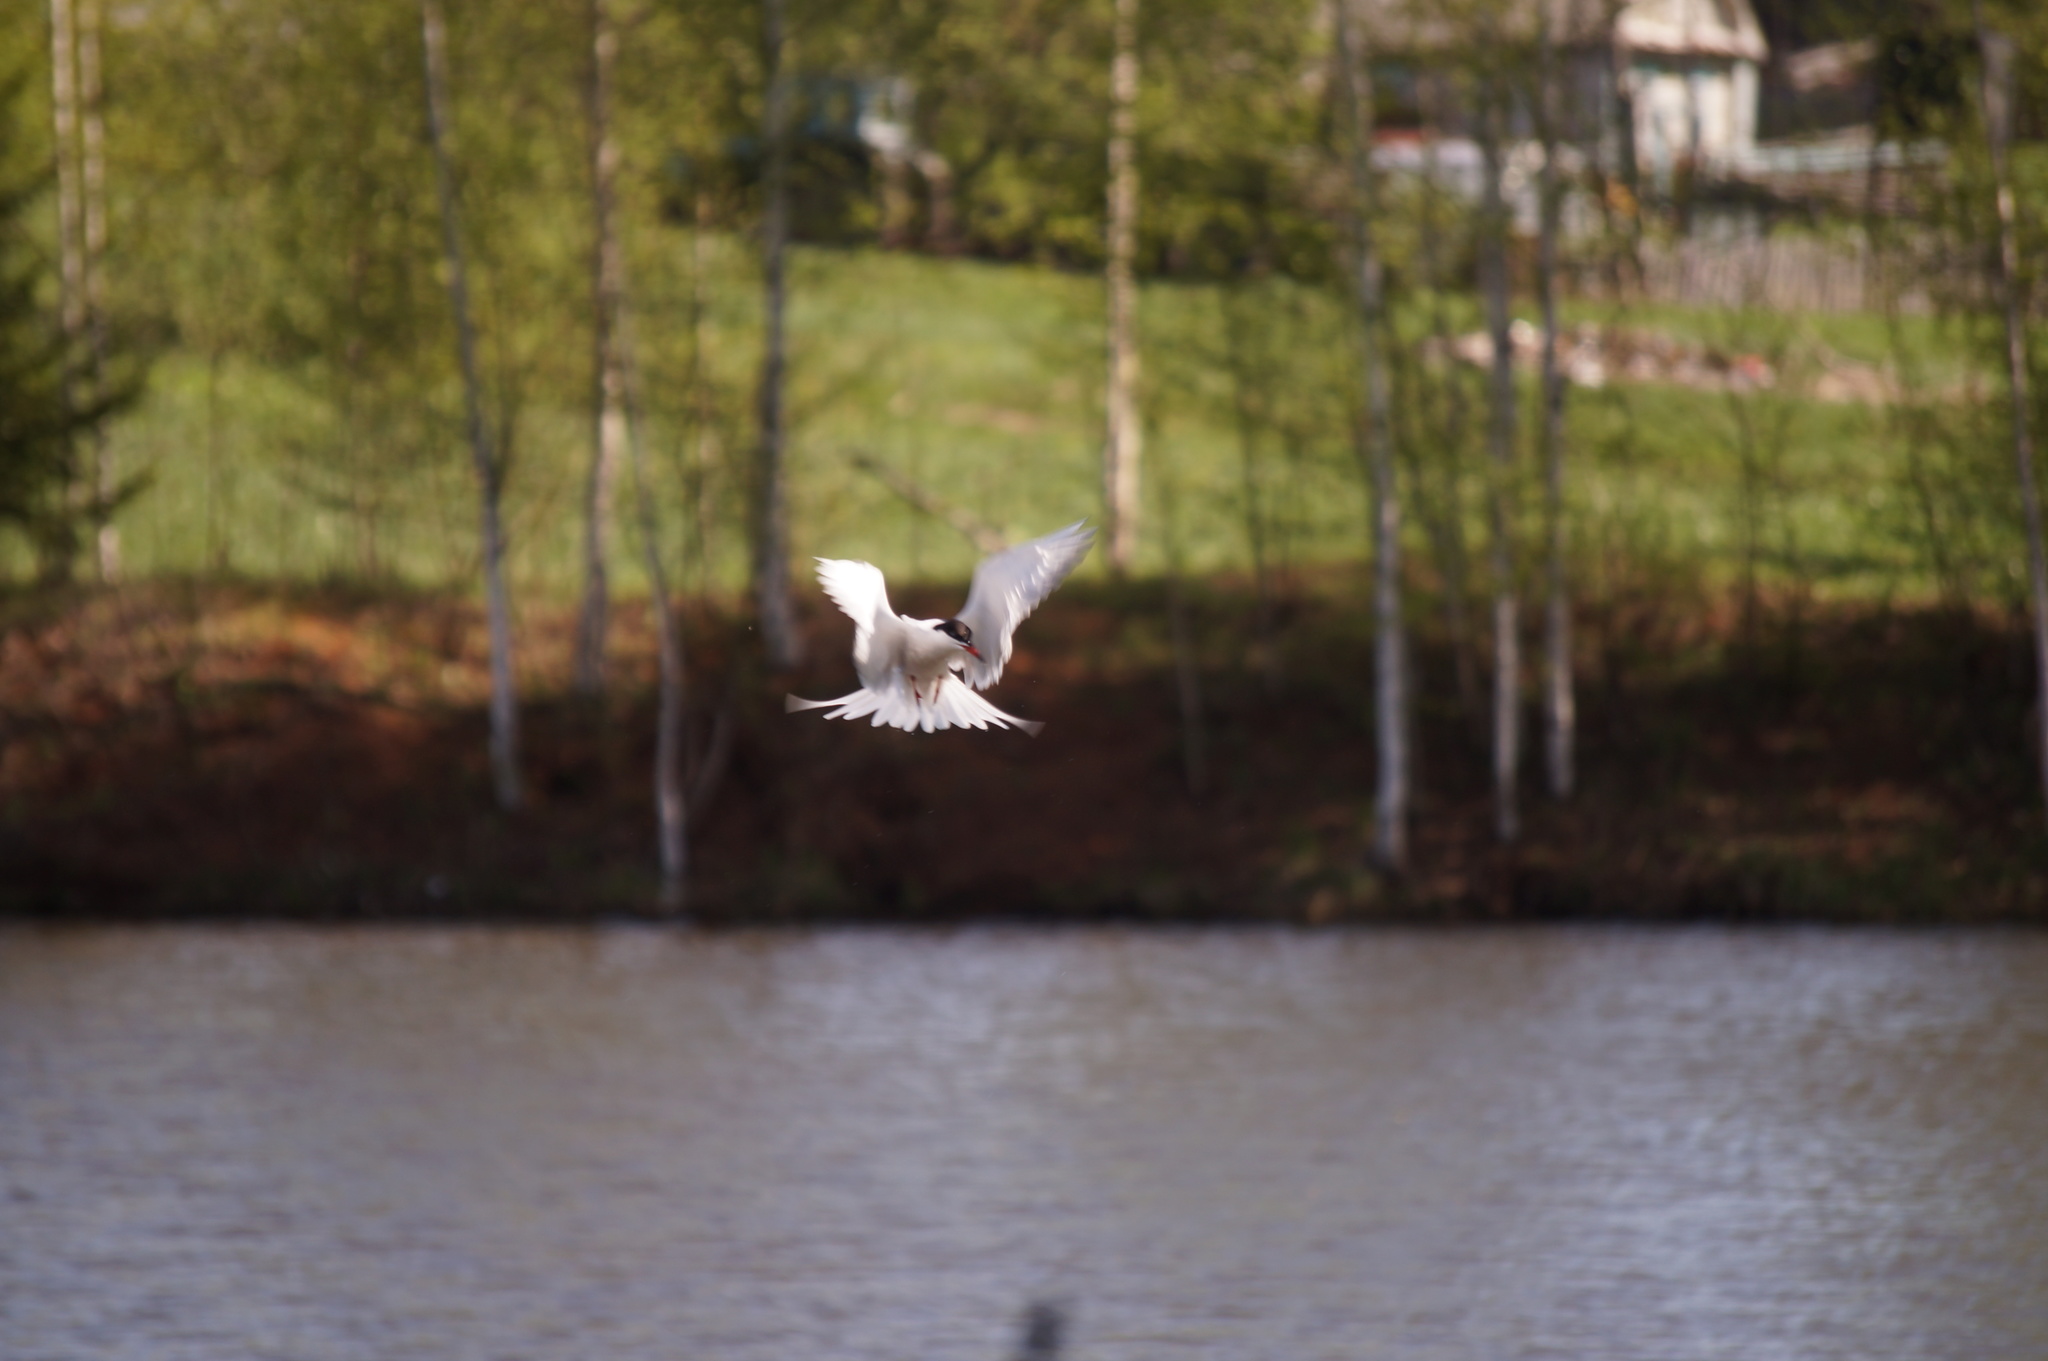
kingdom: Animalia
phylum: Chordata
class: Aves
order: Charadriiformes
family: Laridae
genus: Sterna
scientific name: Sterna hirundo
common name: Common tern
